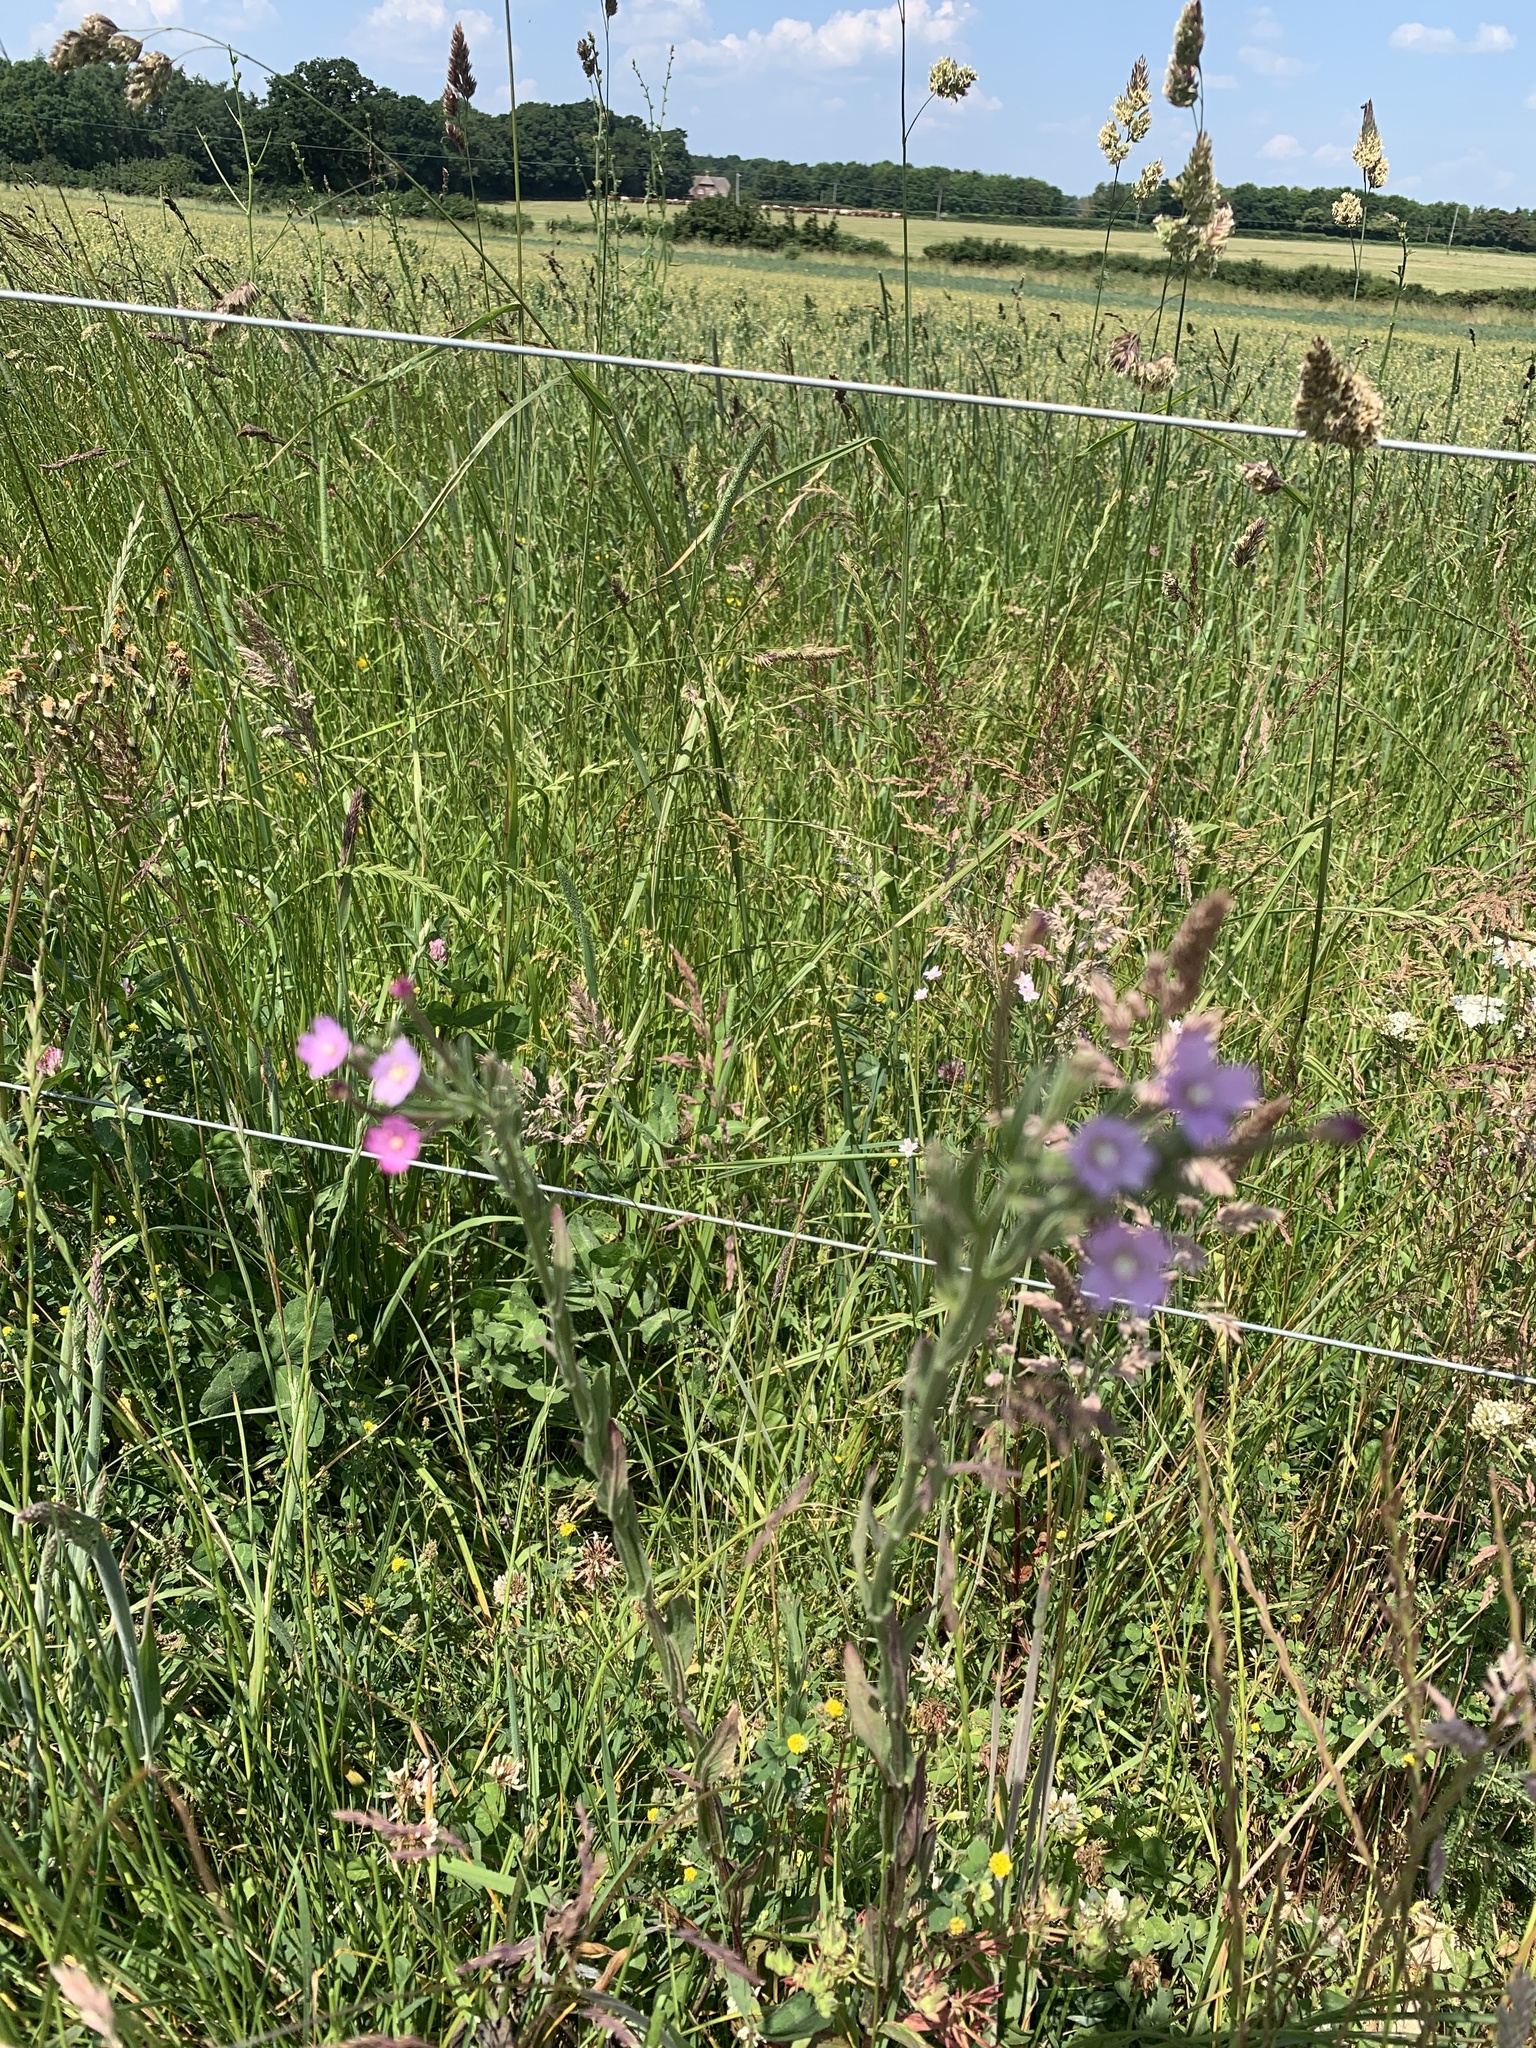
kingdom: Plantae
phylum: Tracheophyta
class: Magnoliopsida
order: Myrtales
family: Onagraceae
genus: Epilobium
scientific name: Epilobium parviflorum
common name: Hoary willowherb
